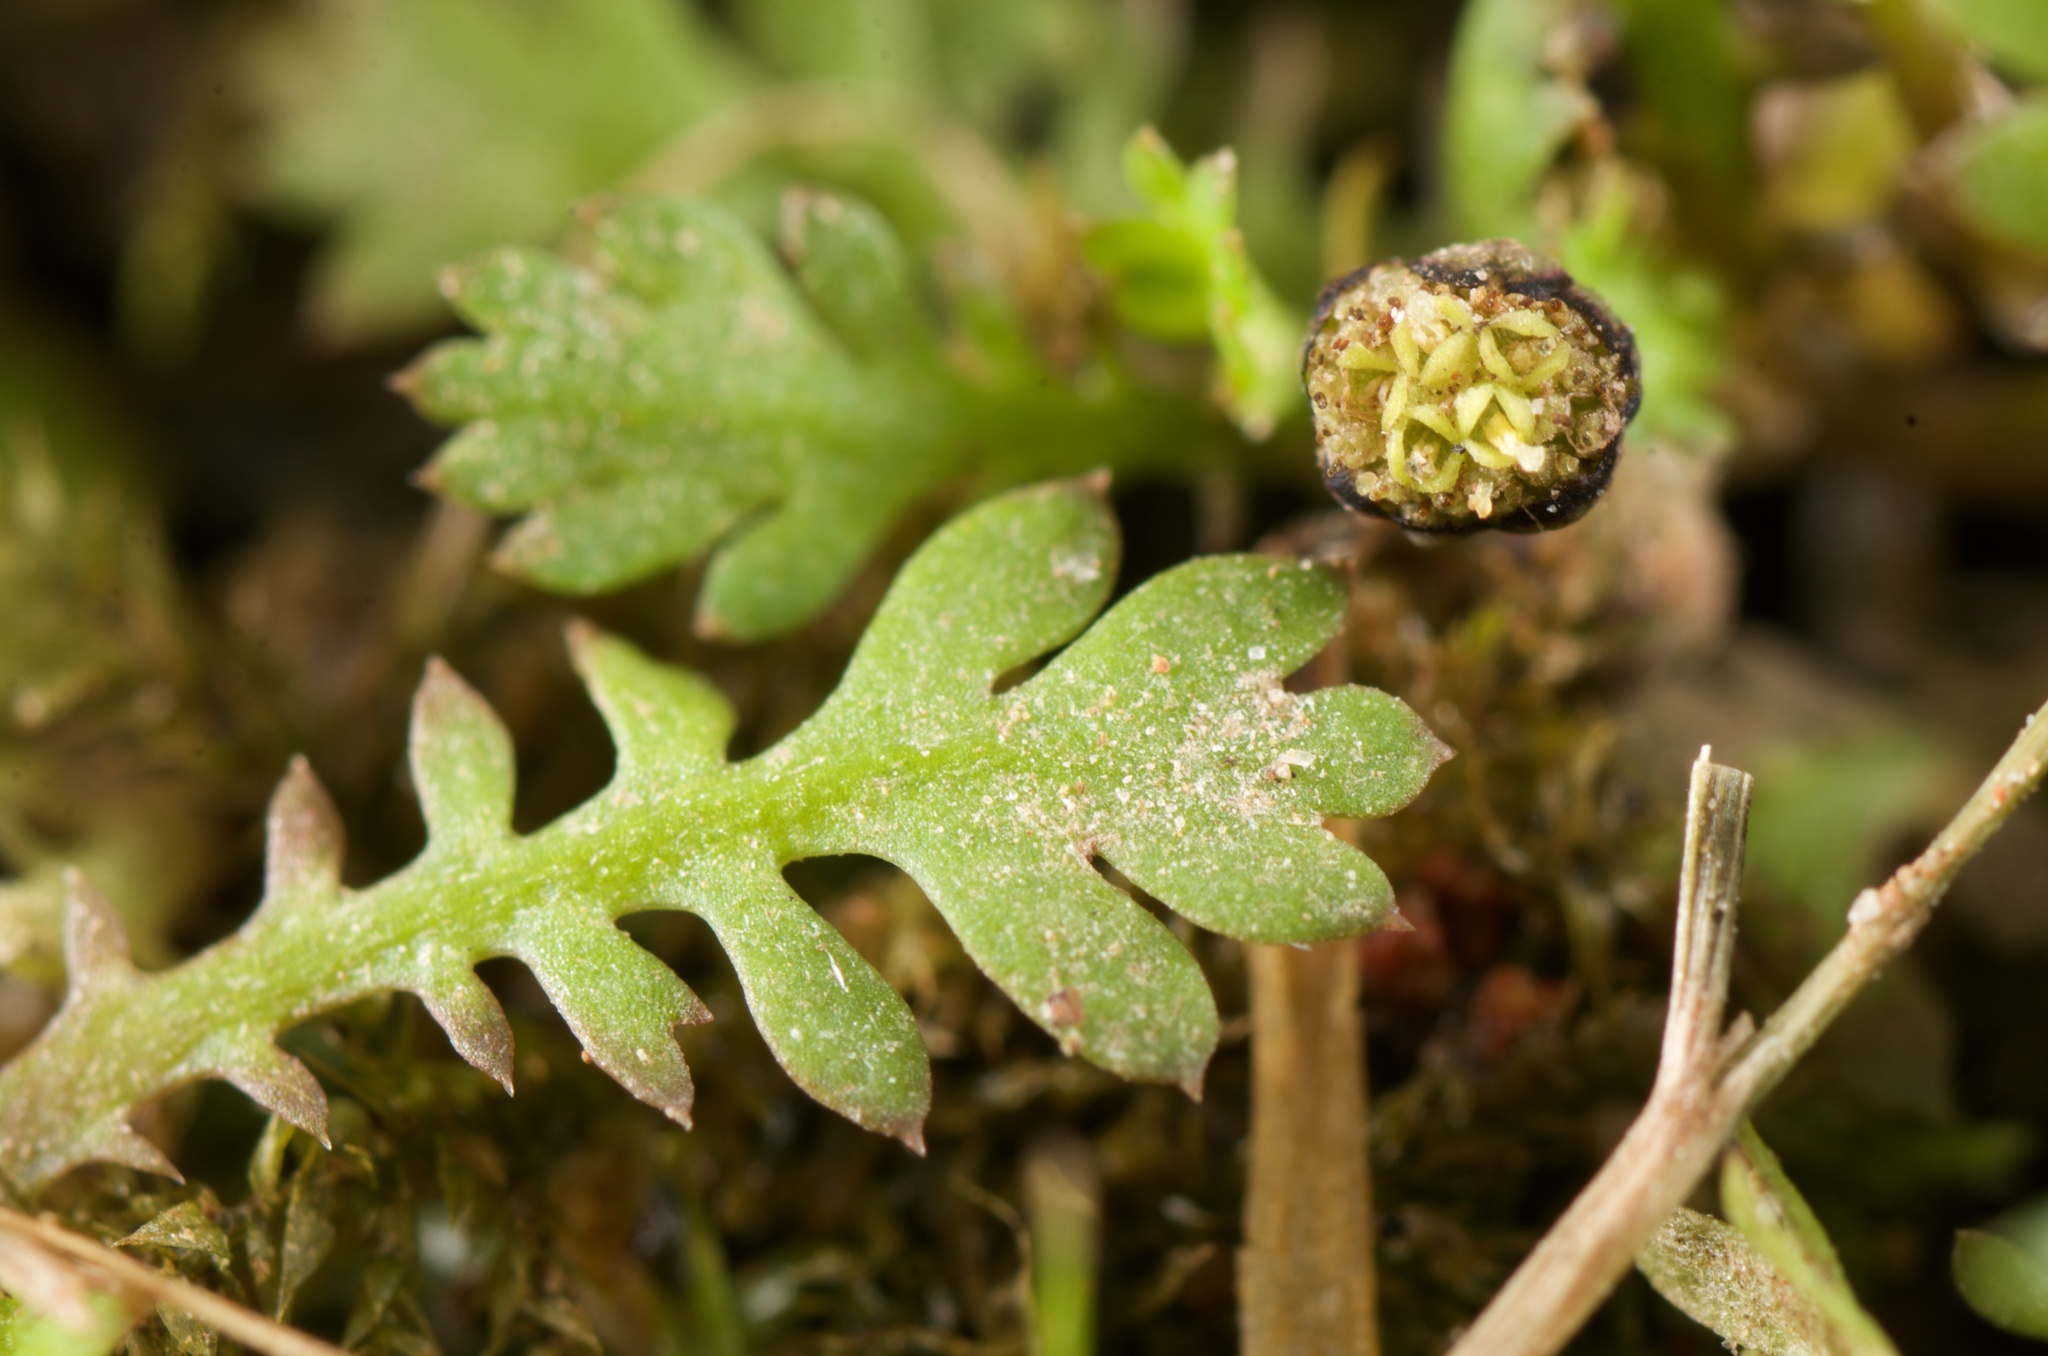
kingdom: Plantae
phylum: Tracheophyta
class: Magnoliopsida
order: Asterales
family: Asteraceae
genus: Leptinella
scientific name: Leptinella nana
